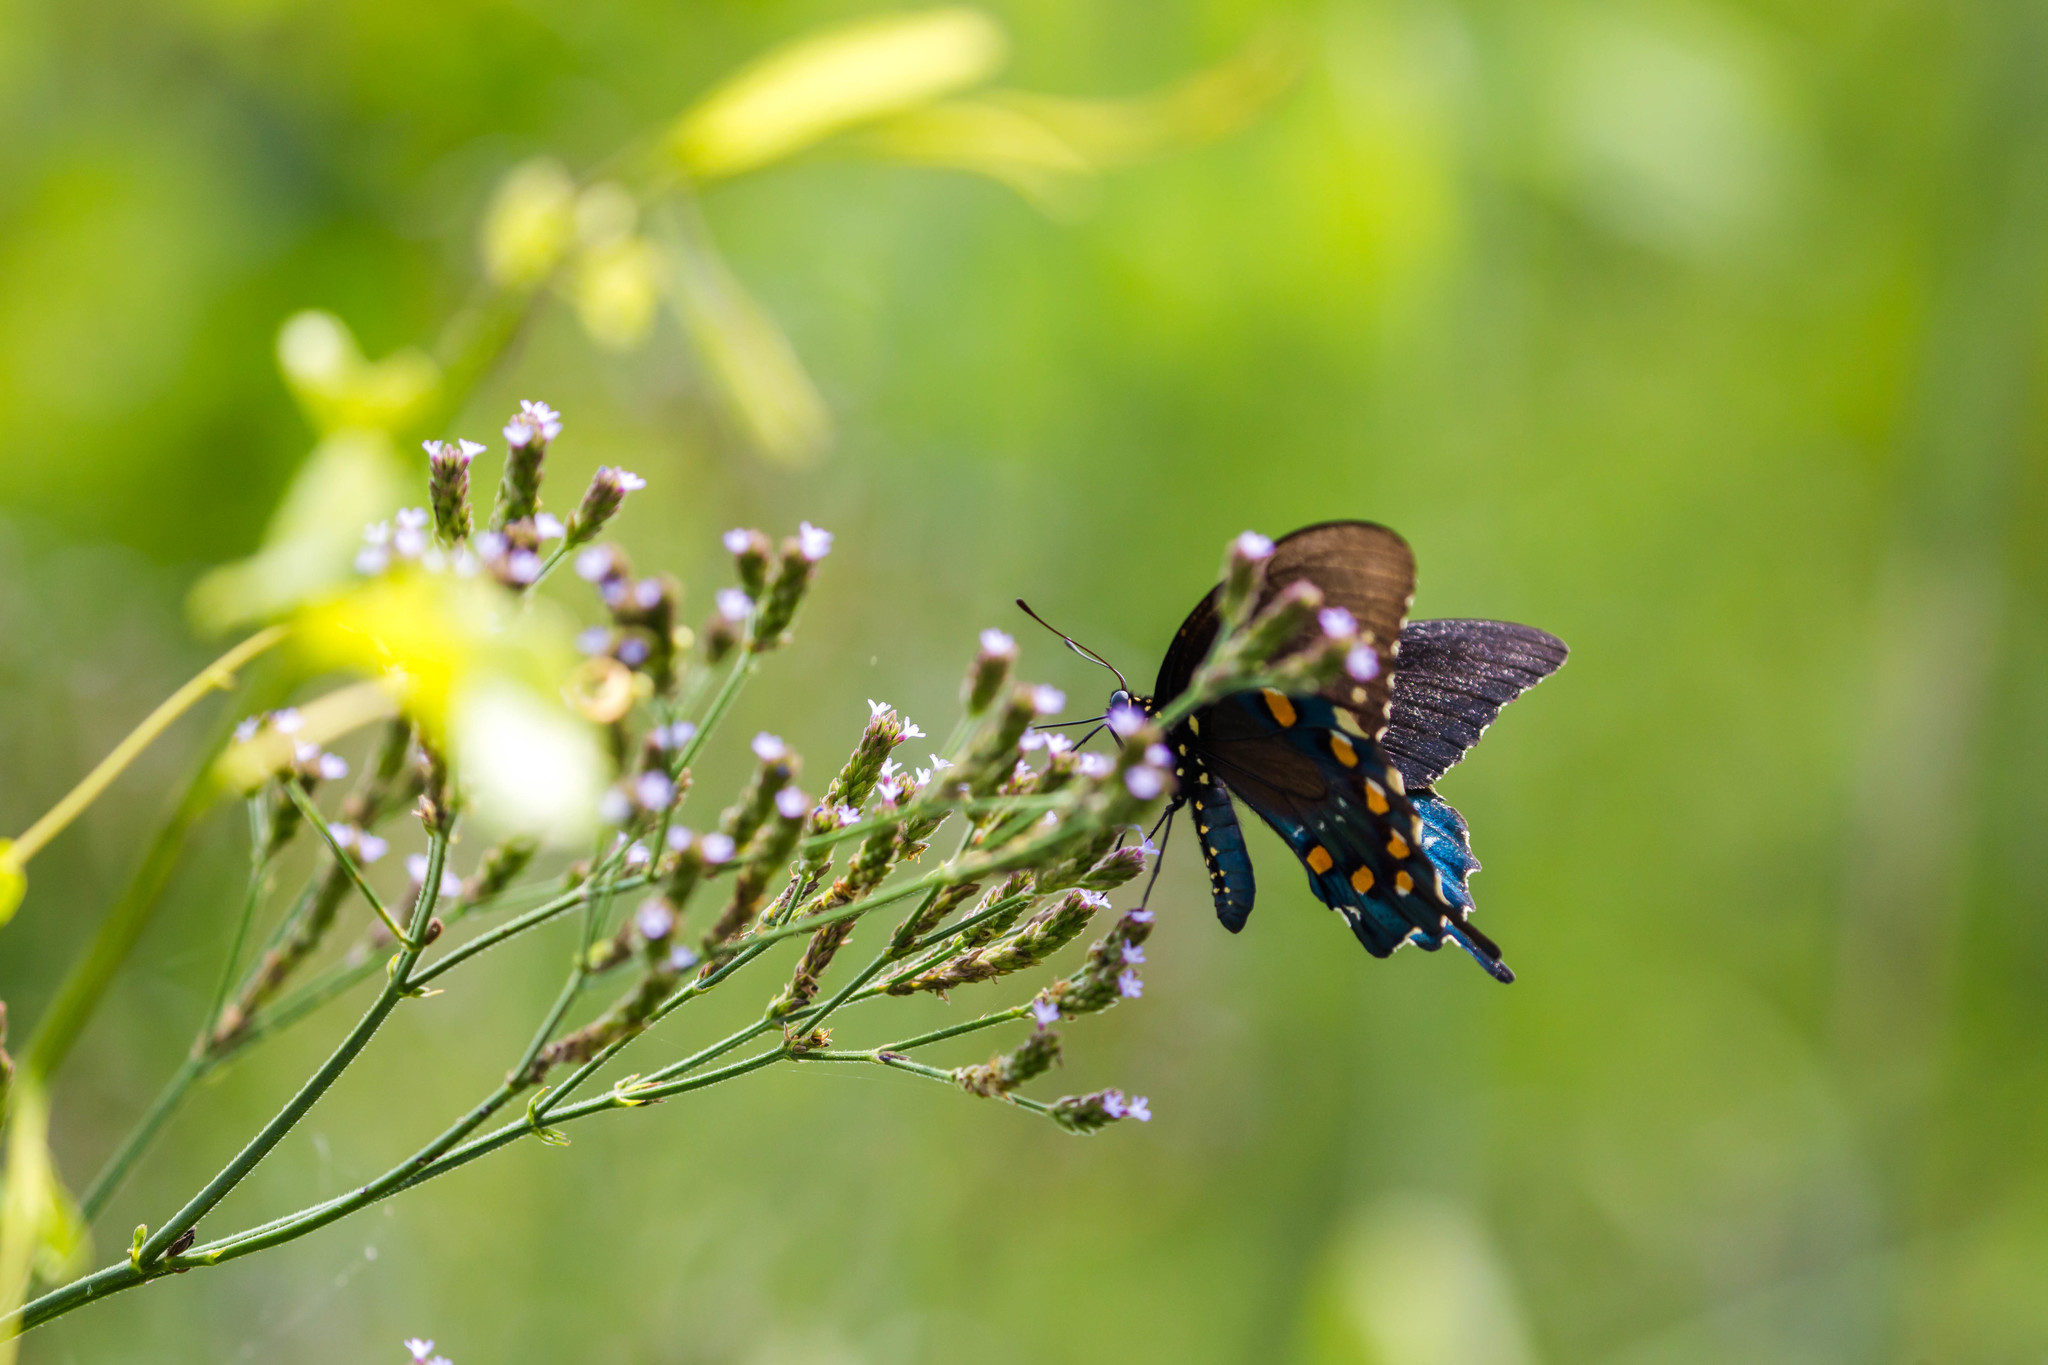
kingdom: Animalia
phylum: Arthropoda
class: Insecta
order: Lepidoptera
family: Papilionidae
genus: Battus
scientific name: Battus philenor
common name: Pipevine swallowtail
